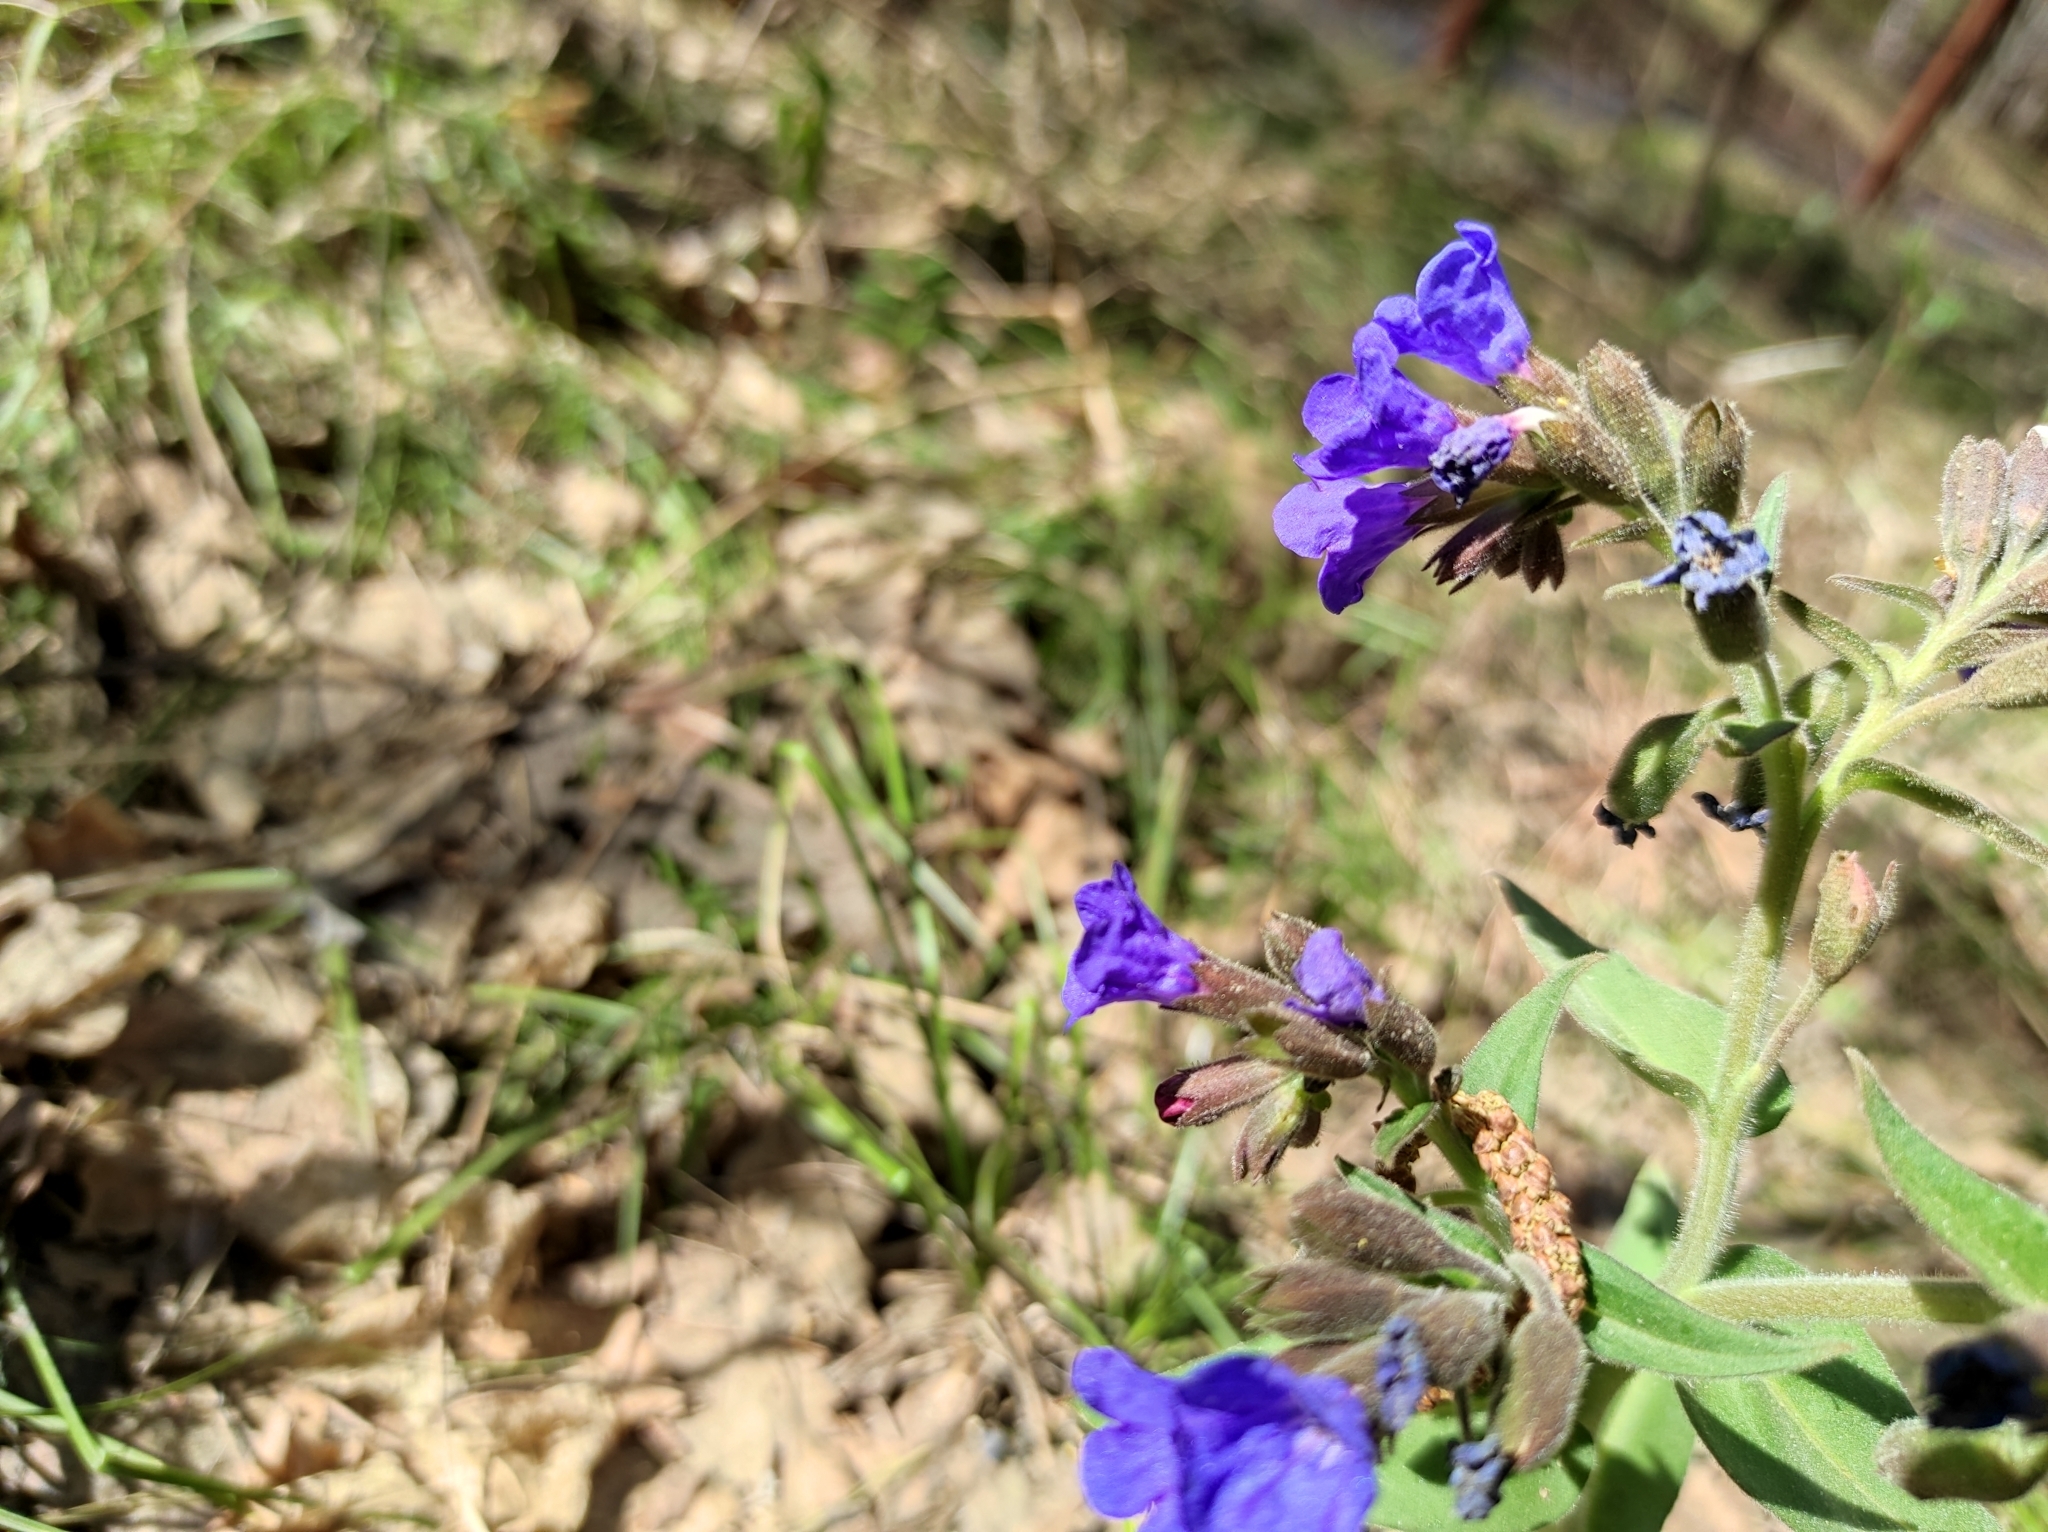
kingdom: Animalia
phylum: Arthropoda
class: Insecta
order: Lepidoptera
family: Pieridae
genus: Gonepteryx
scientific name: Gonepteryx rhamni
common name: Brimstone
